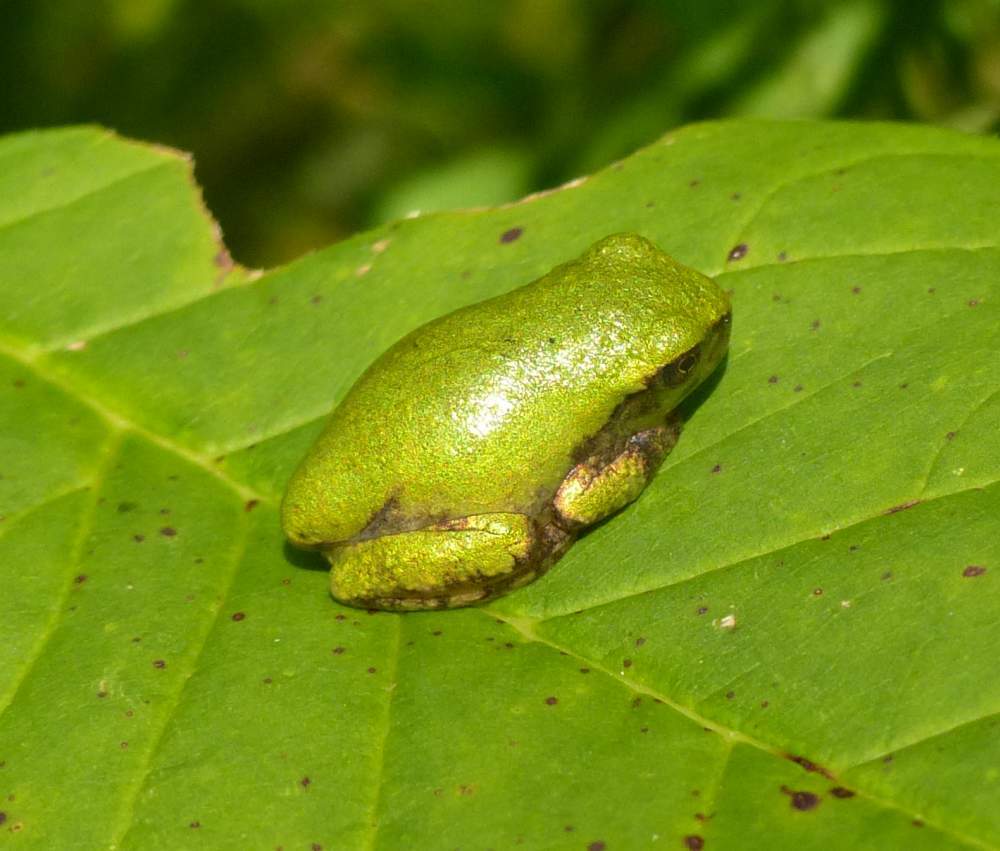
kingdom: Animalia
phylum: Chordata
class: Amphibia
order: Anura
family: Hylidae
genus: Dryophytes
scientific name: Dryophytes versicolor
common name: Gray treefrog
